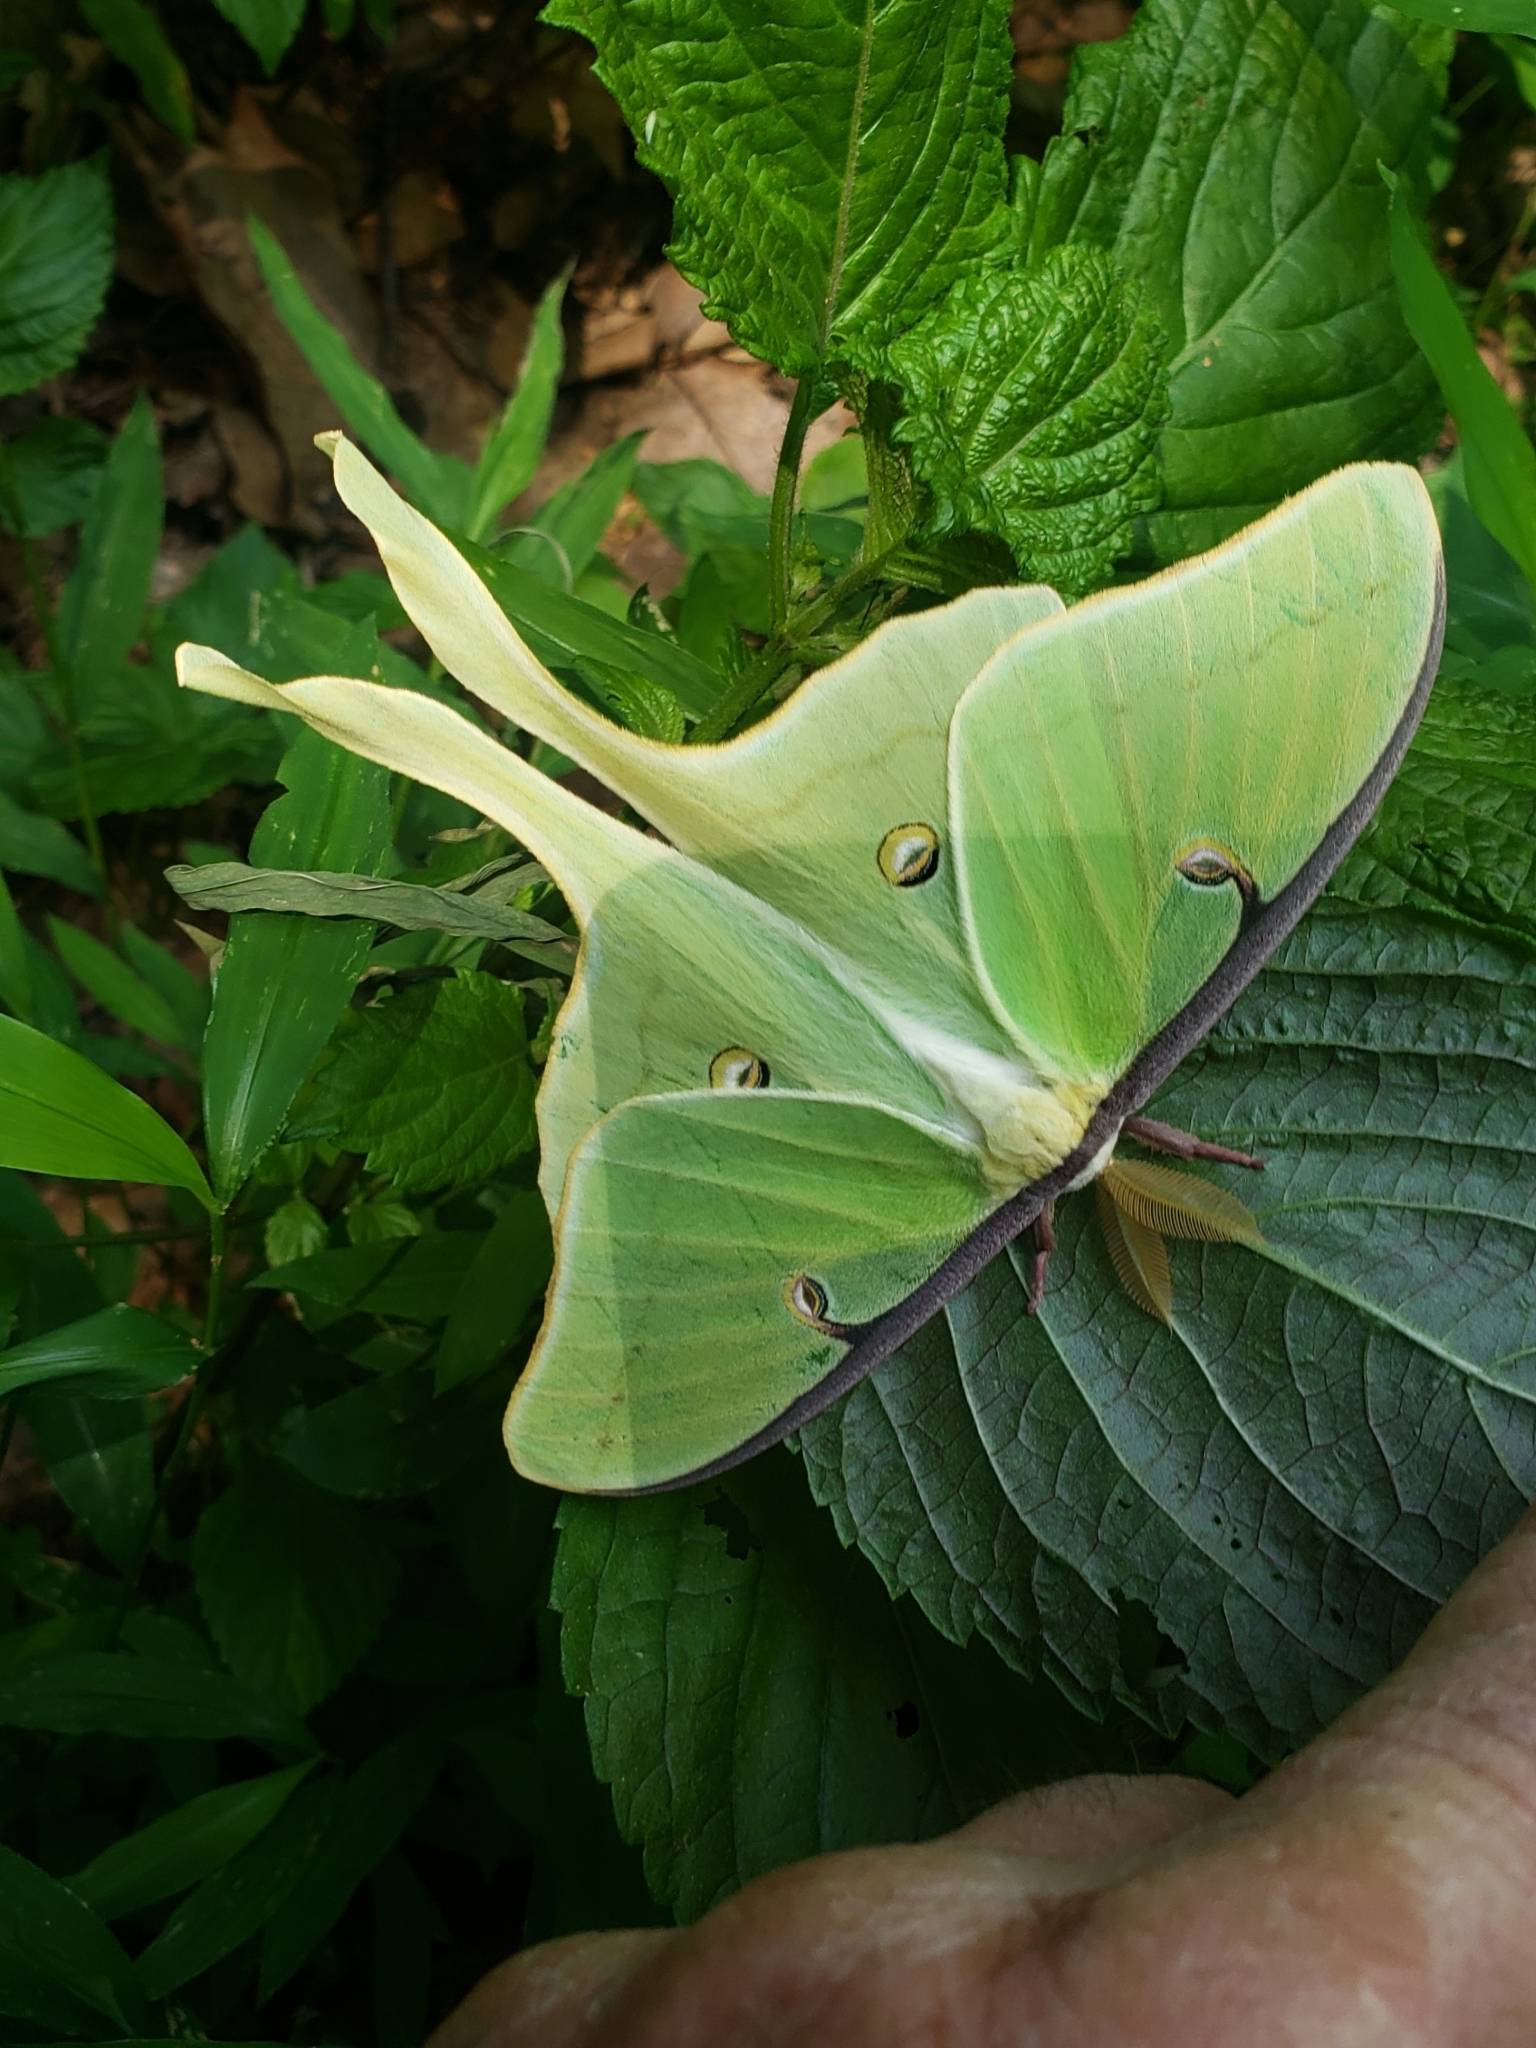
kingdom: Animalia
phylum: Arthropoda
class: Insecta
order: Lepidoptera
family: Saturniidae
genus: Actias
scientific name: Actias luna
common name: Luna moth
